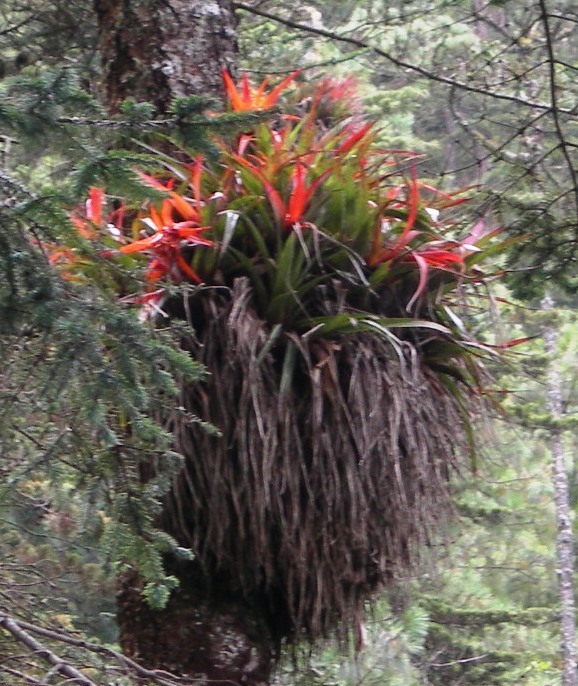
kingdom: Plantae
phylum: Tracheophyta
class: Liliopsida
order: Poales
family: Bromeliaceae
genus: Tillandsia
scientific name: Tillandsia lautneri
